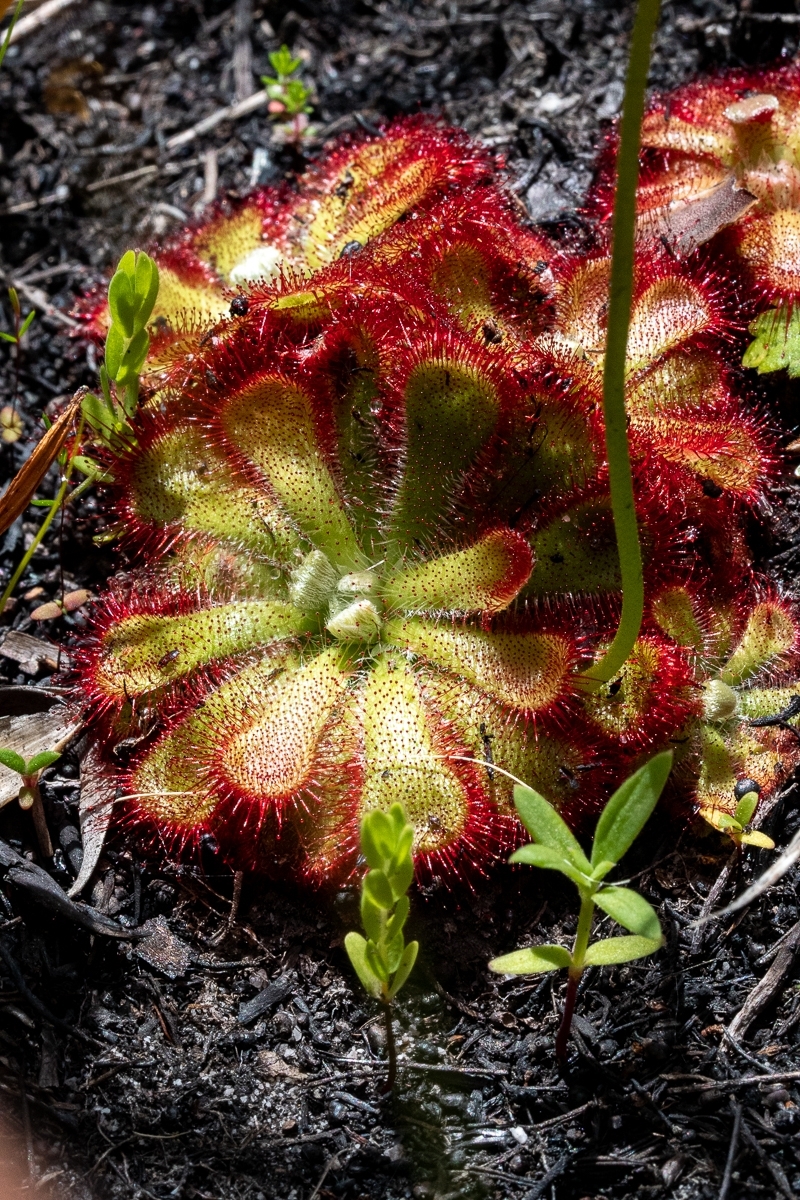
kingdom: Plantae
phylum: Tracheophyta
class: Magnoliopsida
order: Caryophyllales
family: Droseraceae
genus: Drosera
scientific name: Drosera aliciae
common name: Alice sundew
